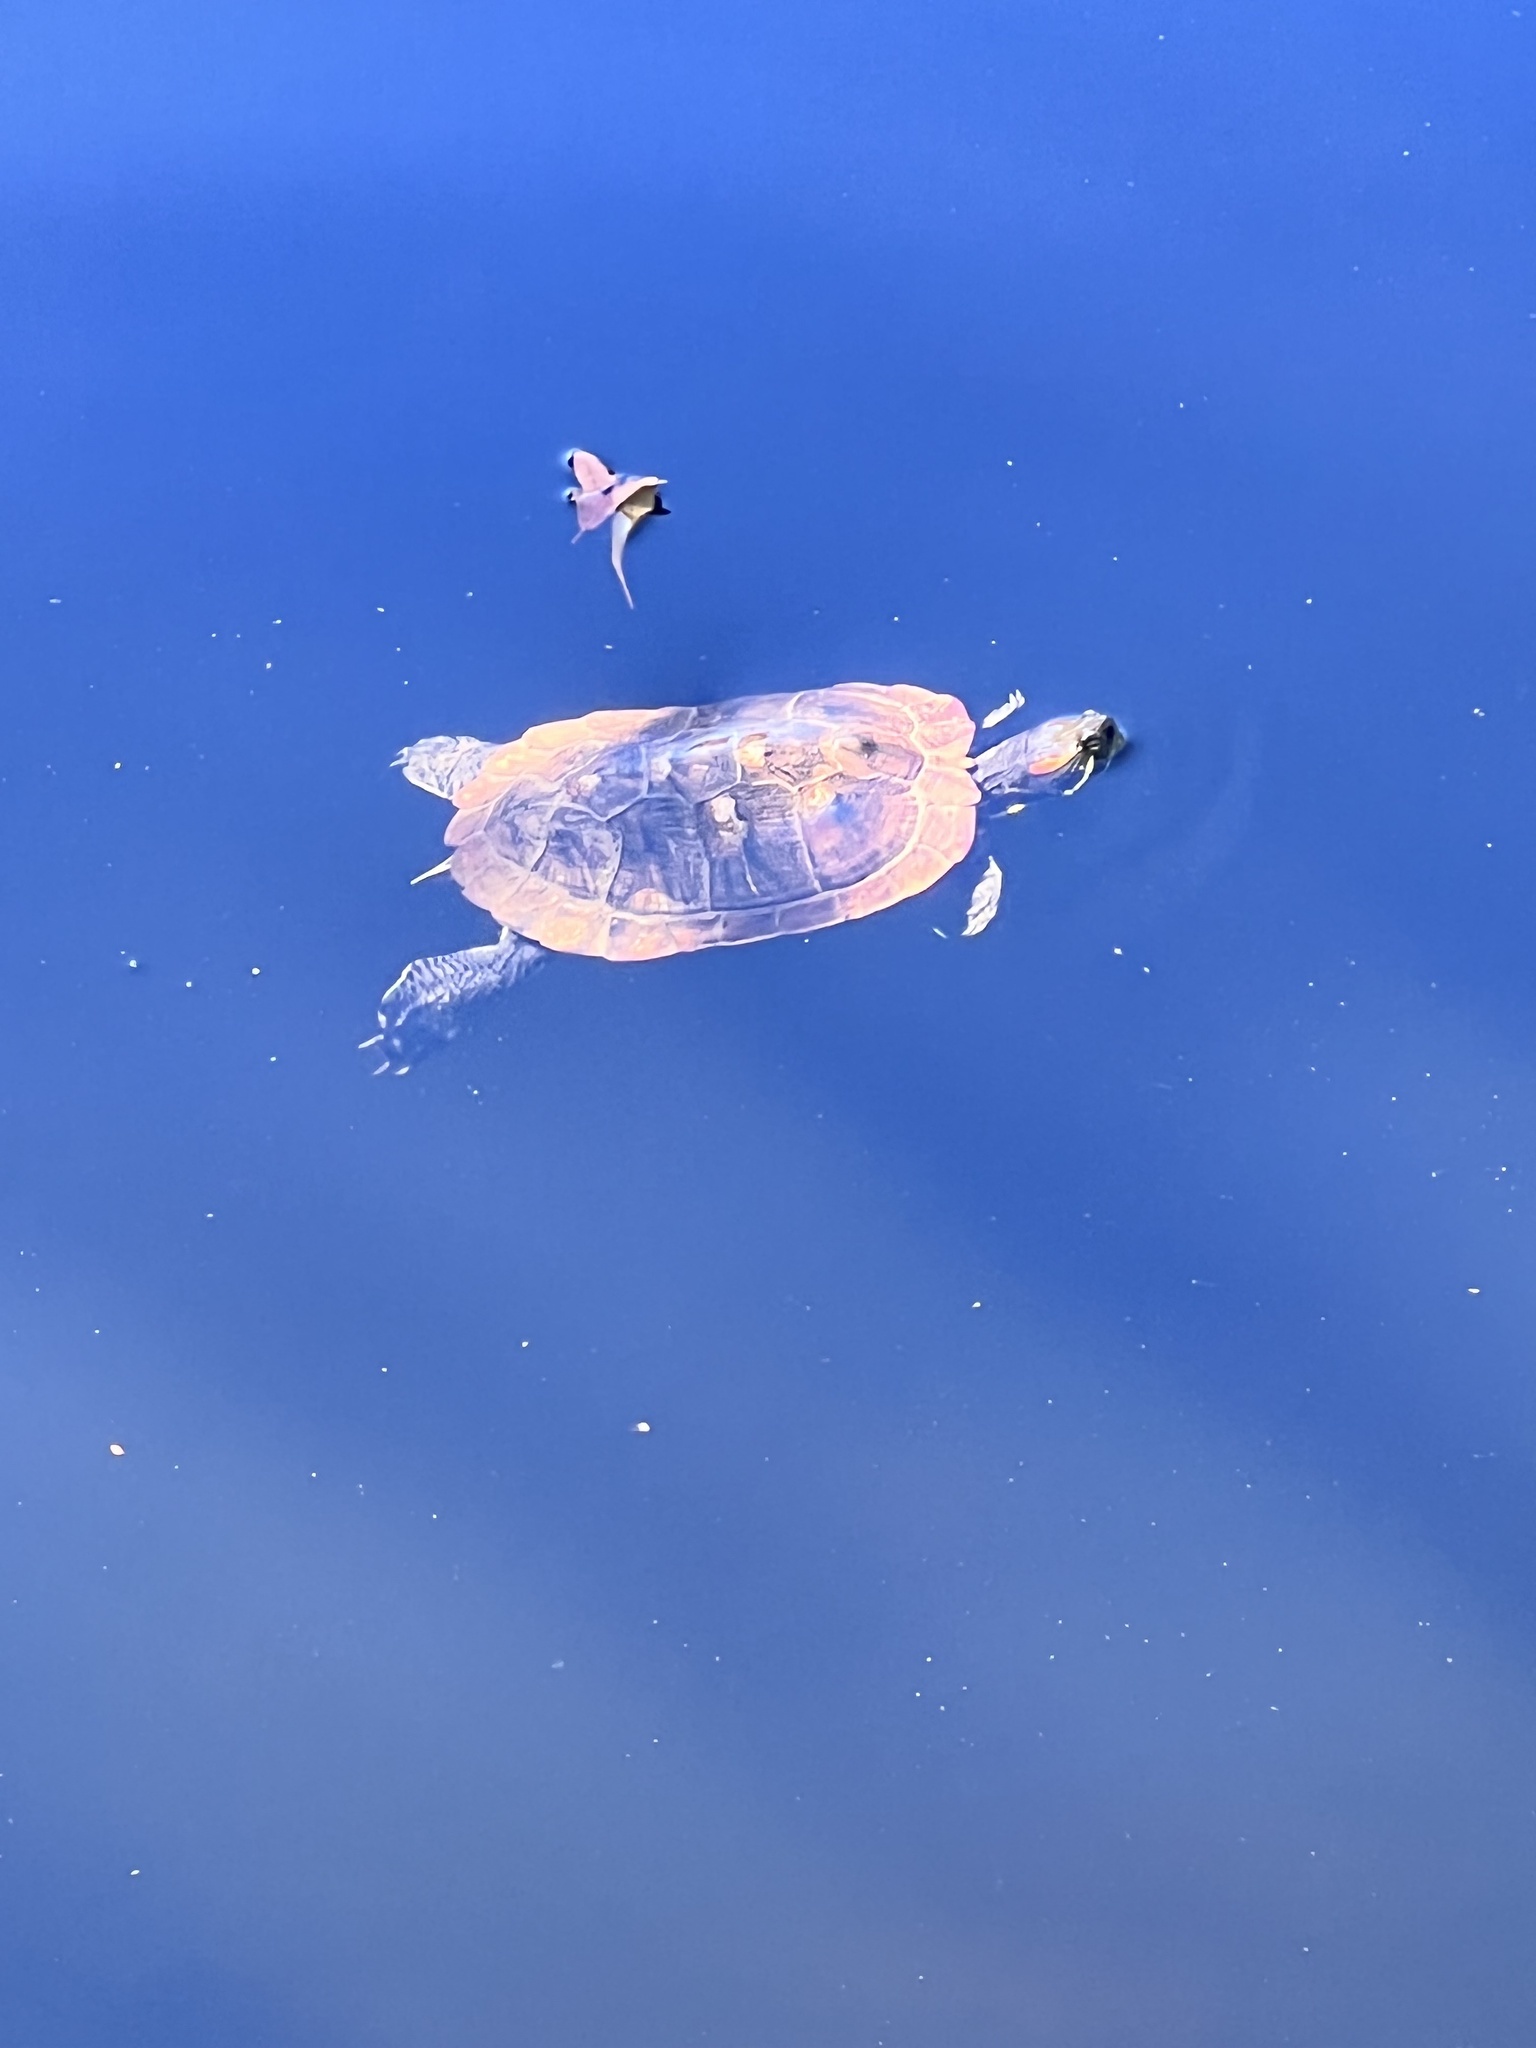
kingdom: Animalia
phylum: Chordata
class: Testudines
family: Emydidae
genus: Trachemys
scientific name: Trachemys scripta
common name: Slider
